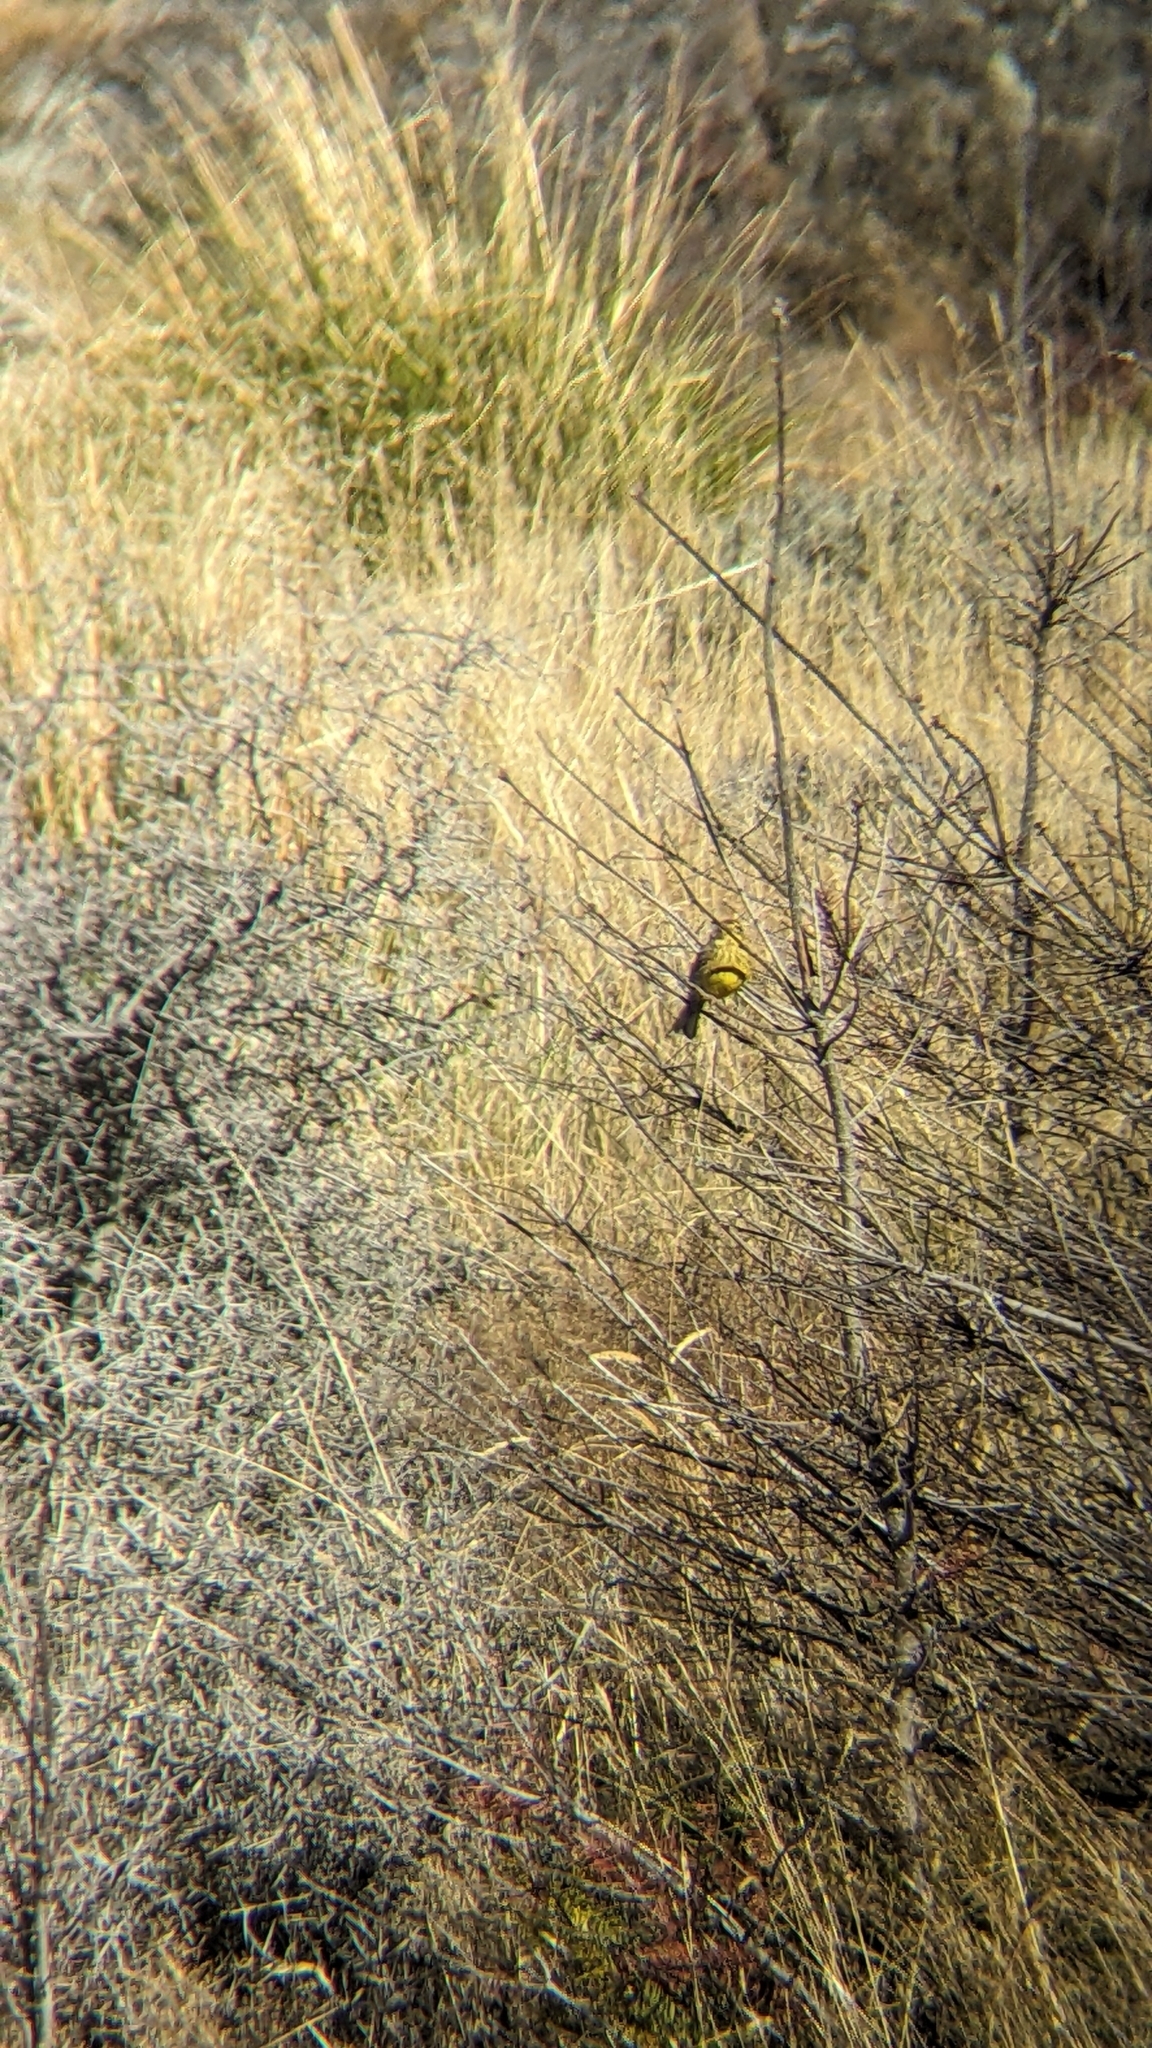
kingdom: Animalia
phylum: Chordata
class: Aves
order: Passeriformes
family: Emberizidae
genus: Emberiza
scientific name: Emberiza citrinella
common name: Yellowhammer
